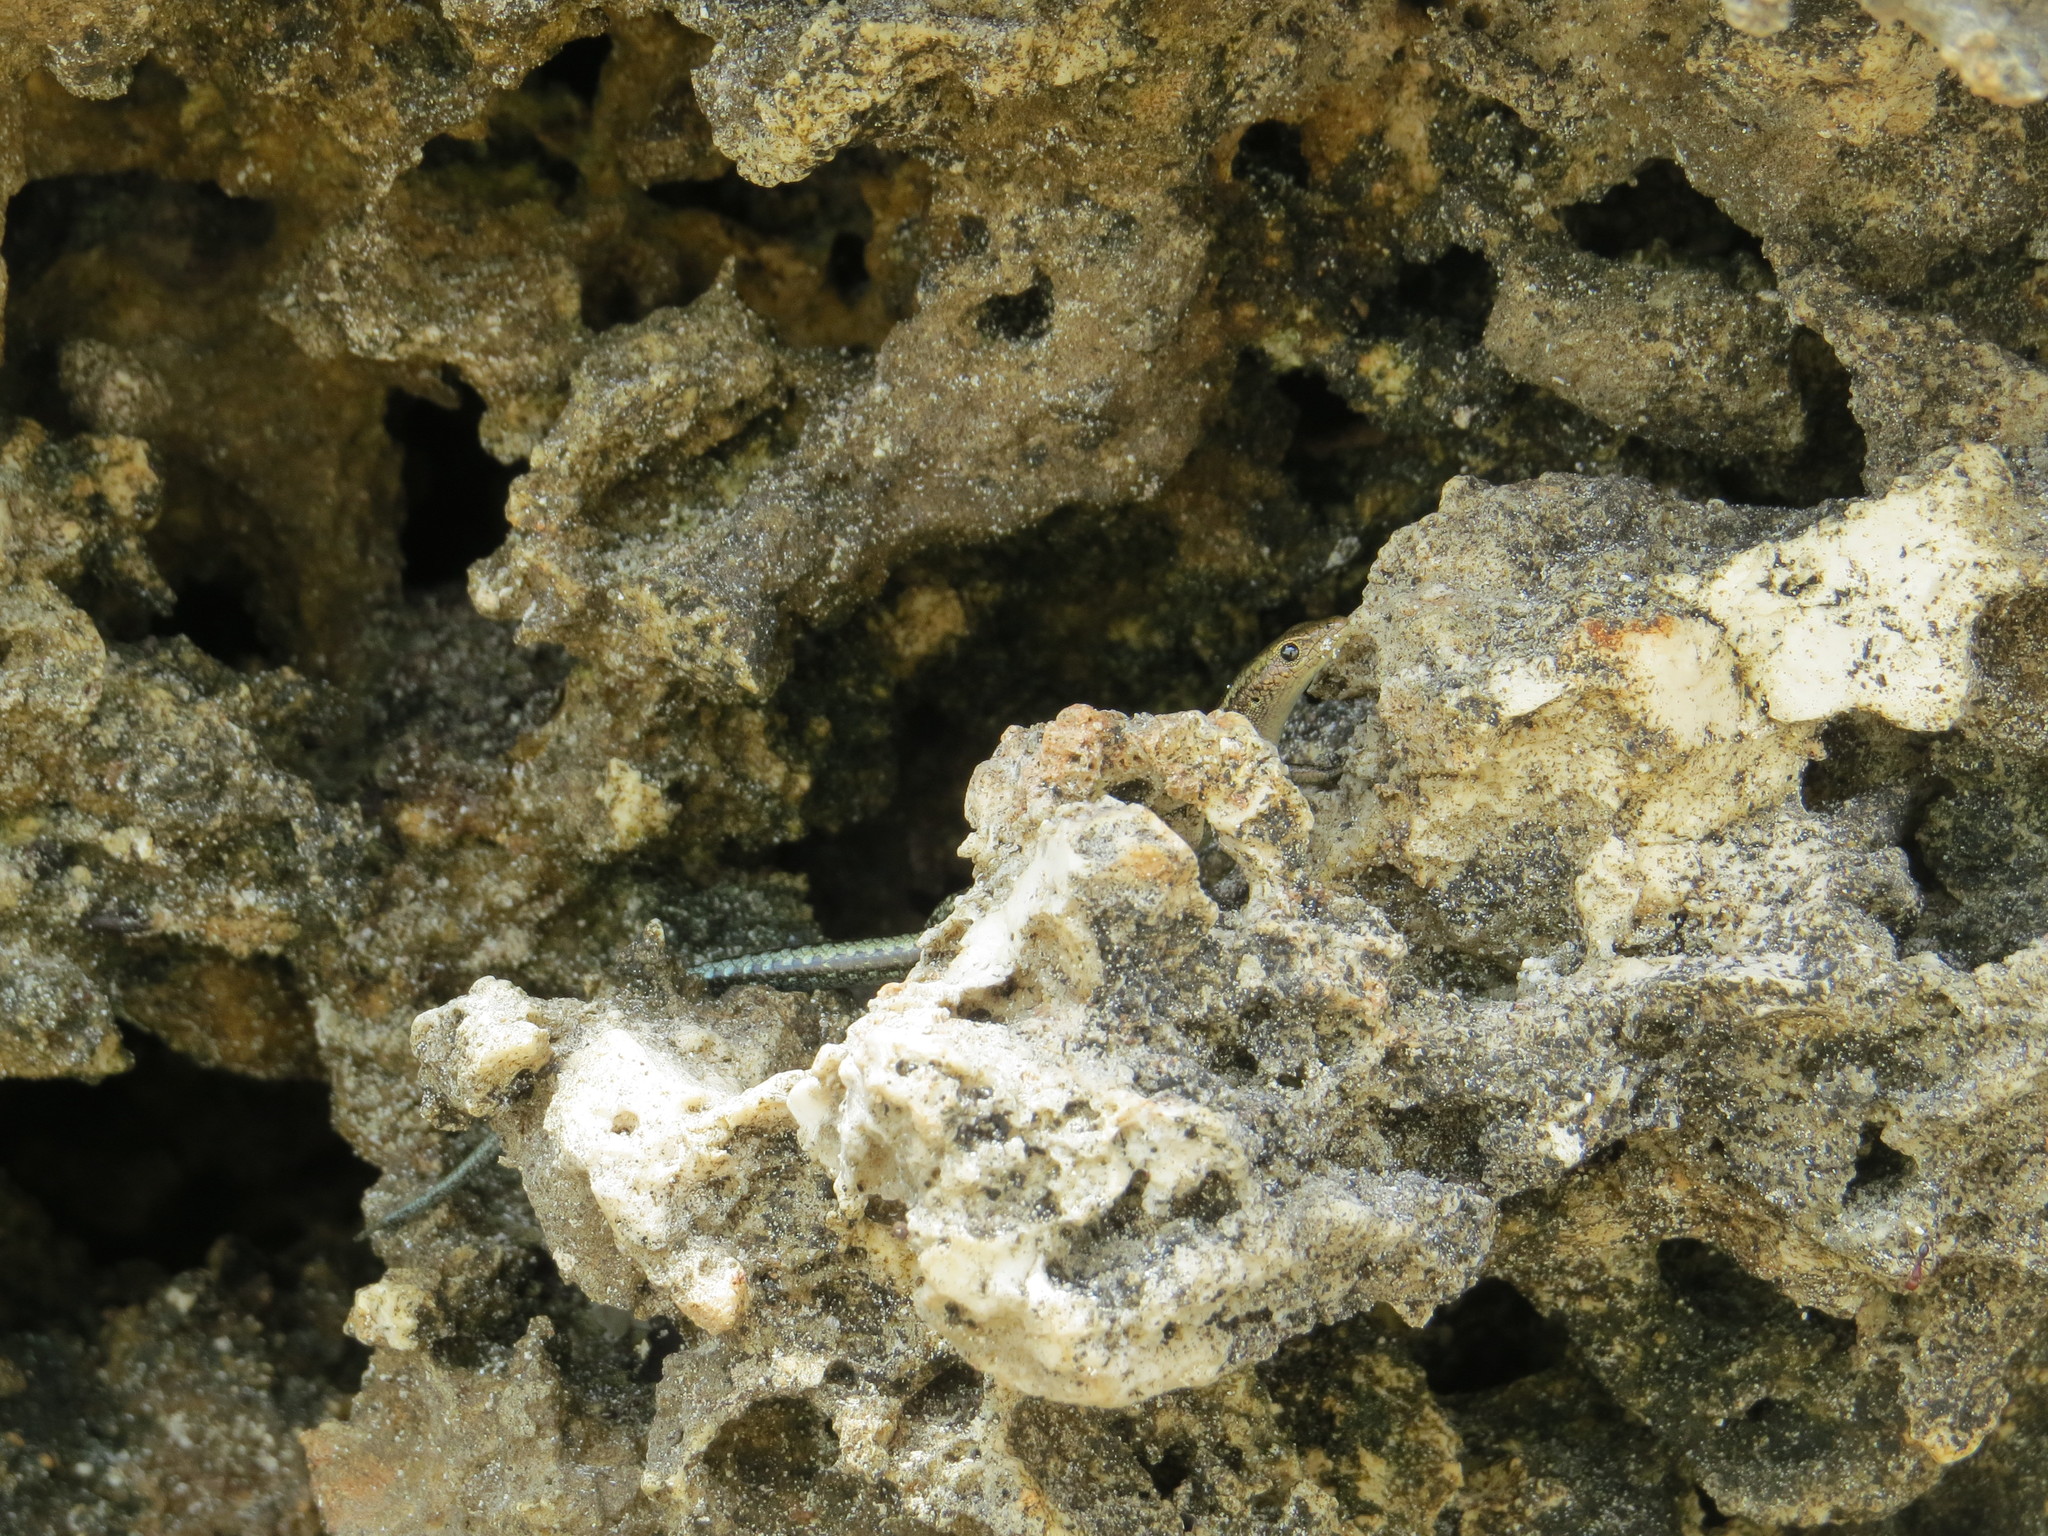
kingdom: Animalia
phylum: Chordata
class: Squamata
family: Scincidae
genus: Cryptoblepharus
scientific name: Cryptoblepharus africanus
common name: African coral rag skink
